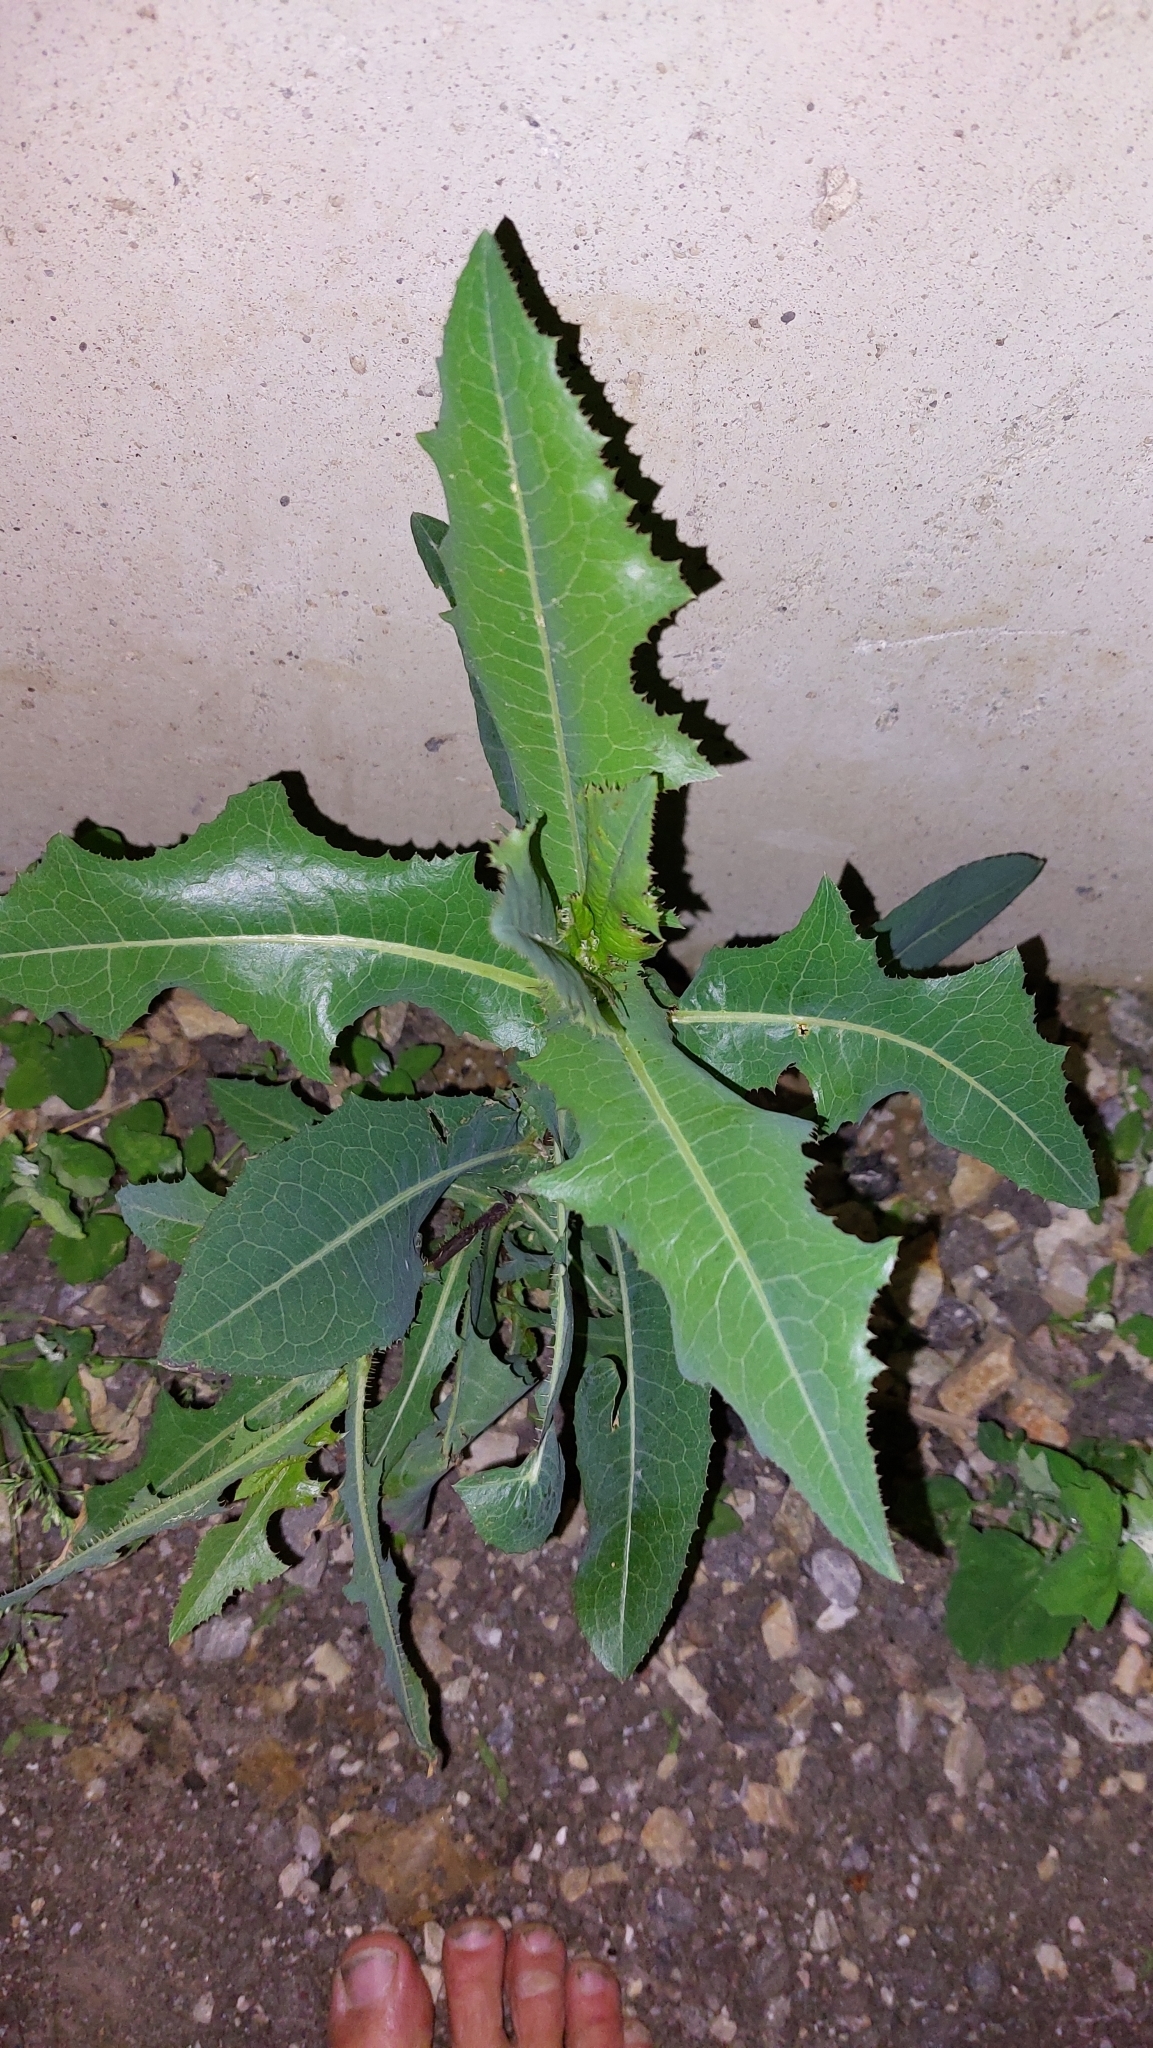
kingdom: Plantae
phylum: Tracheophyta
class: Magnoliopsida
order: Asterales
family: Asteraceae
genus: Lactuca
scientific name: Lactuca serriola
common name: Prickly lettuce
